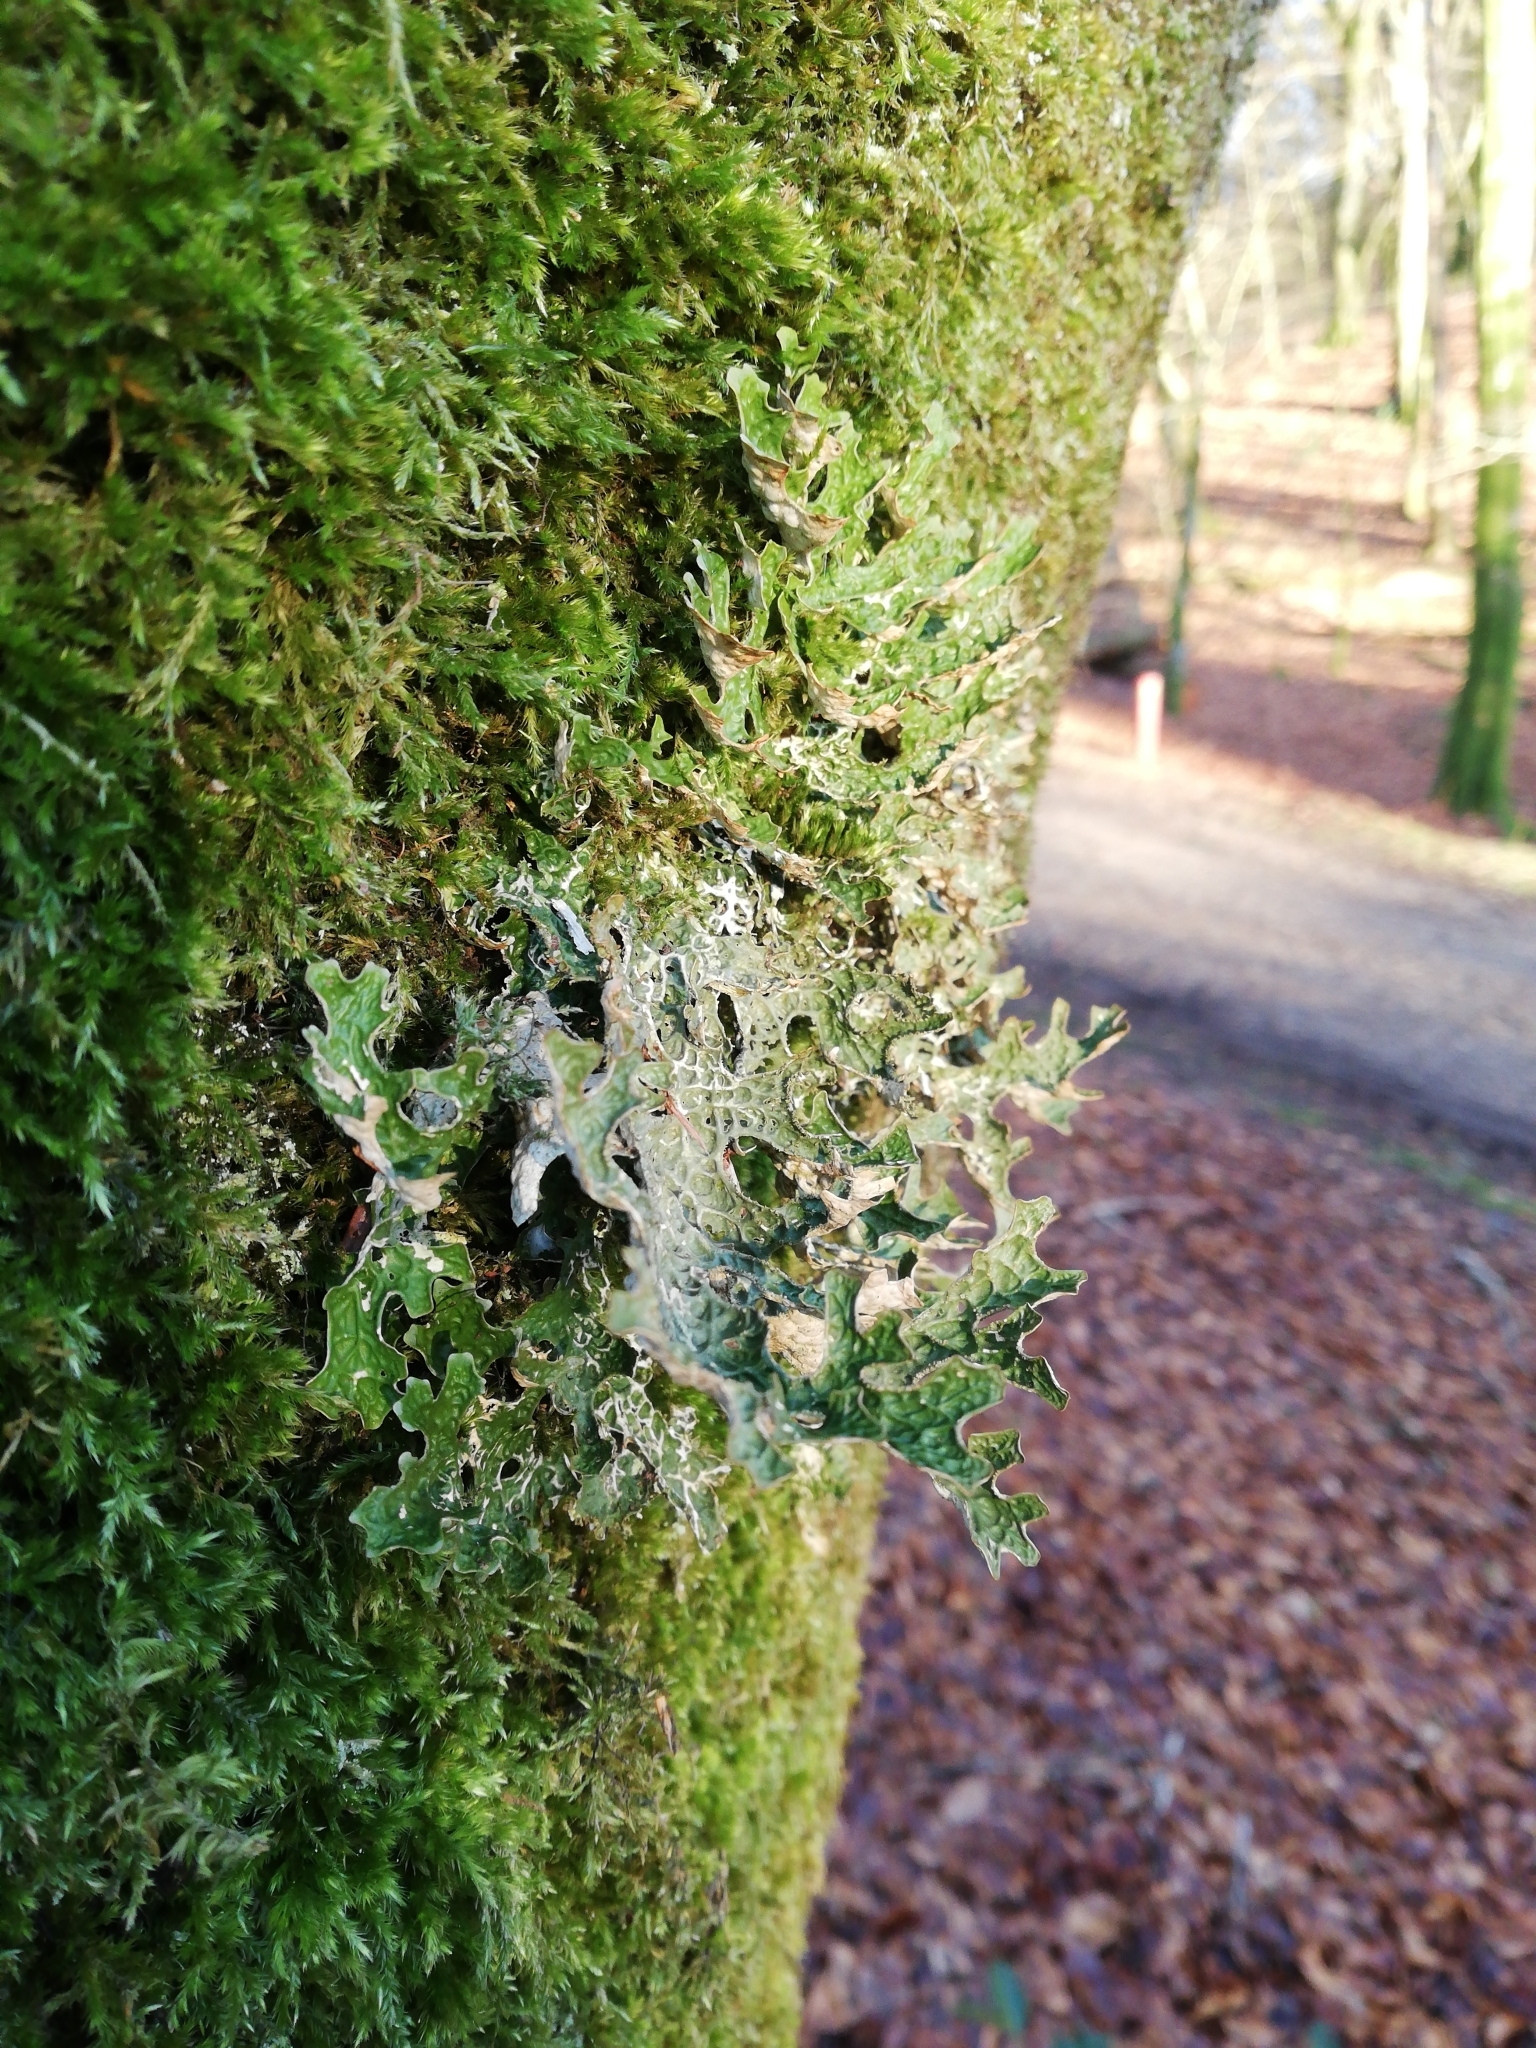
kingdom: Fungi
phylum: Ascomycota
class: Lecanoromycetes
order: Peltigerales
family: Lobariaceae
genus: Lobaria
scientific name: Lobaria pulmonaria
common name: Lungwort
